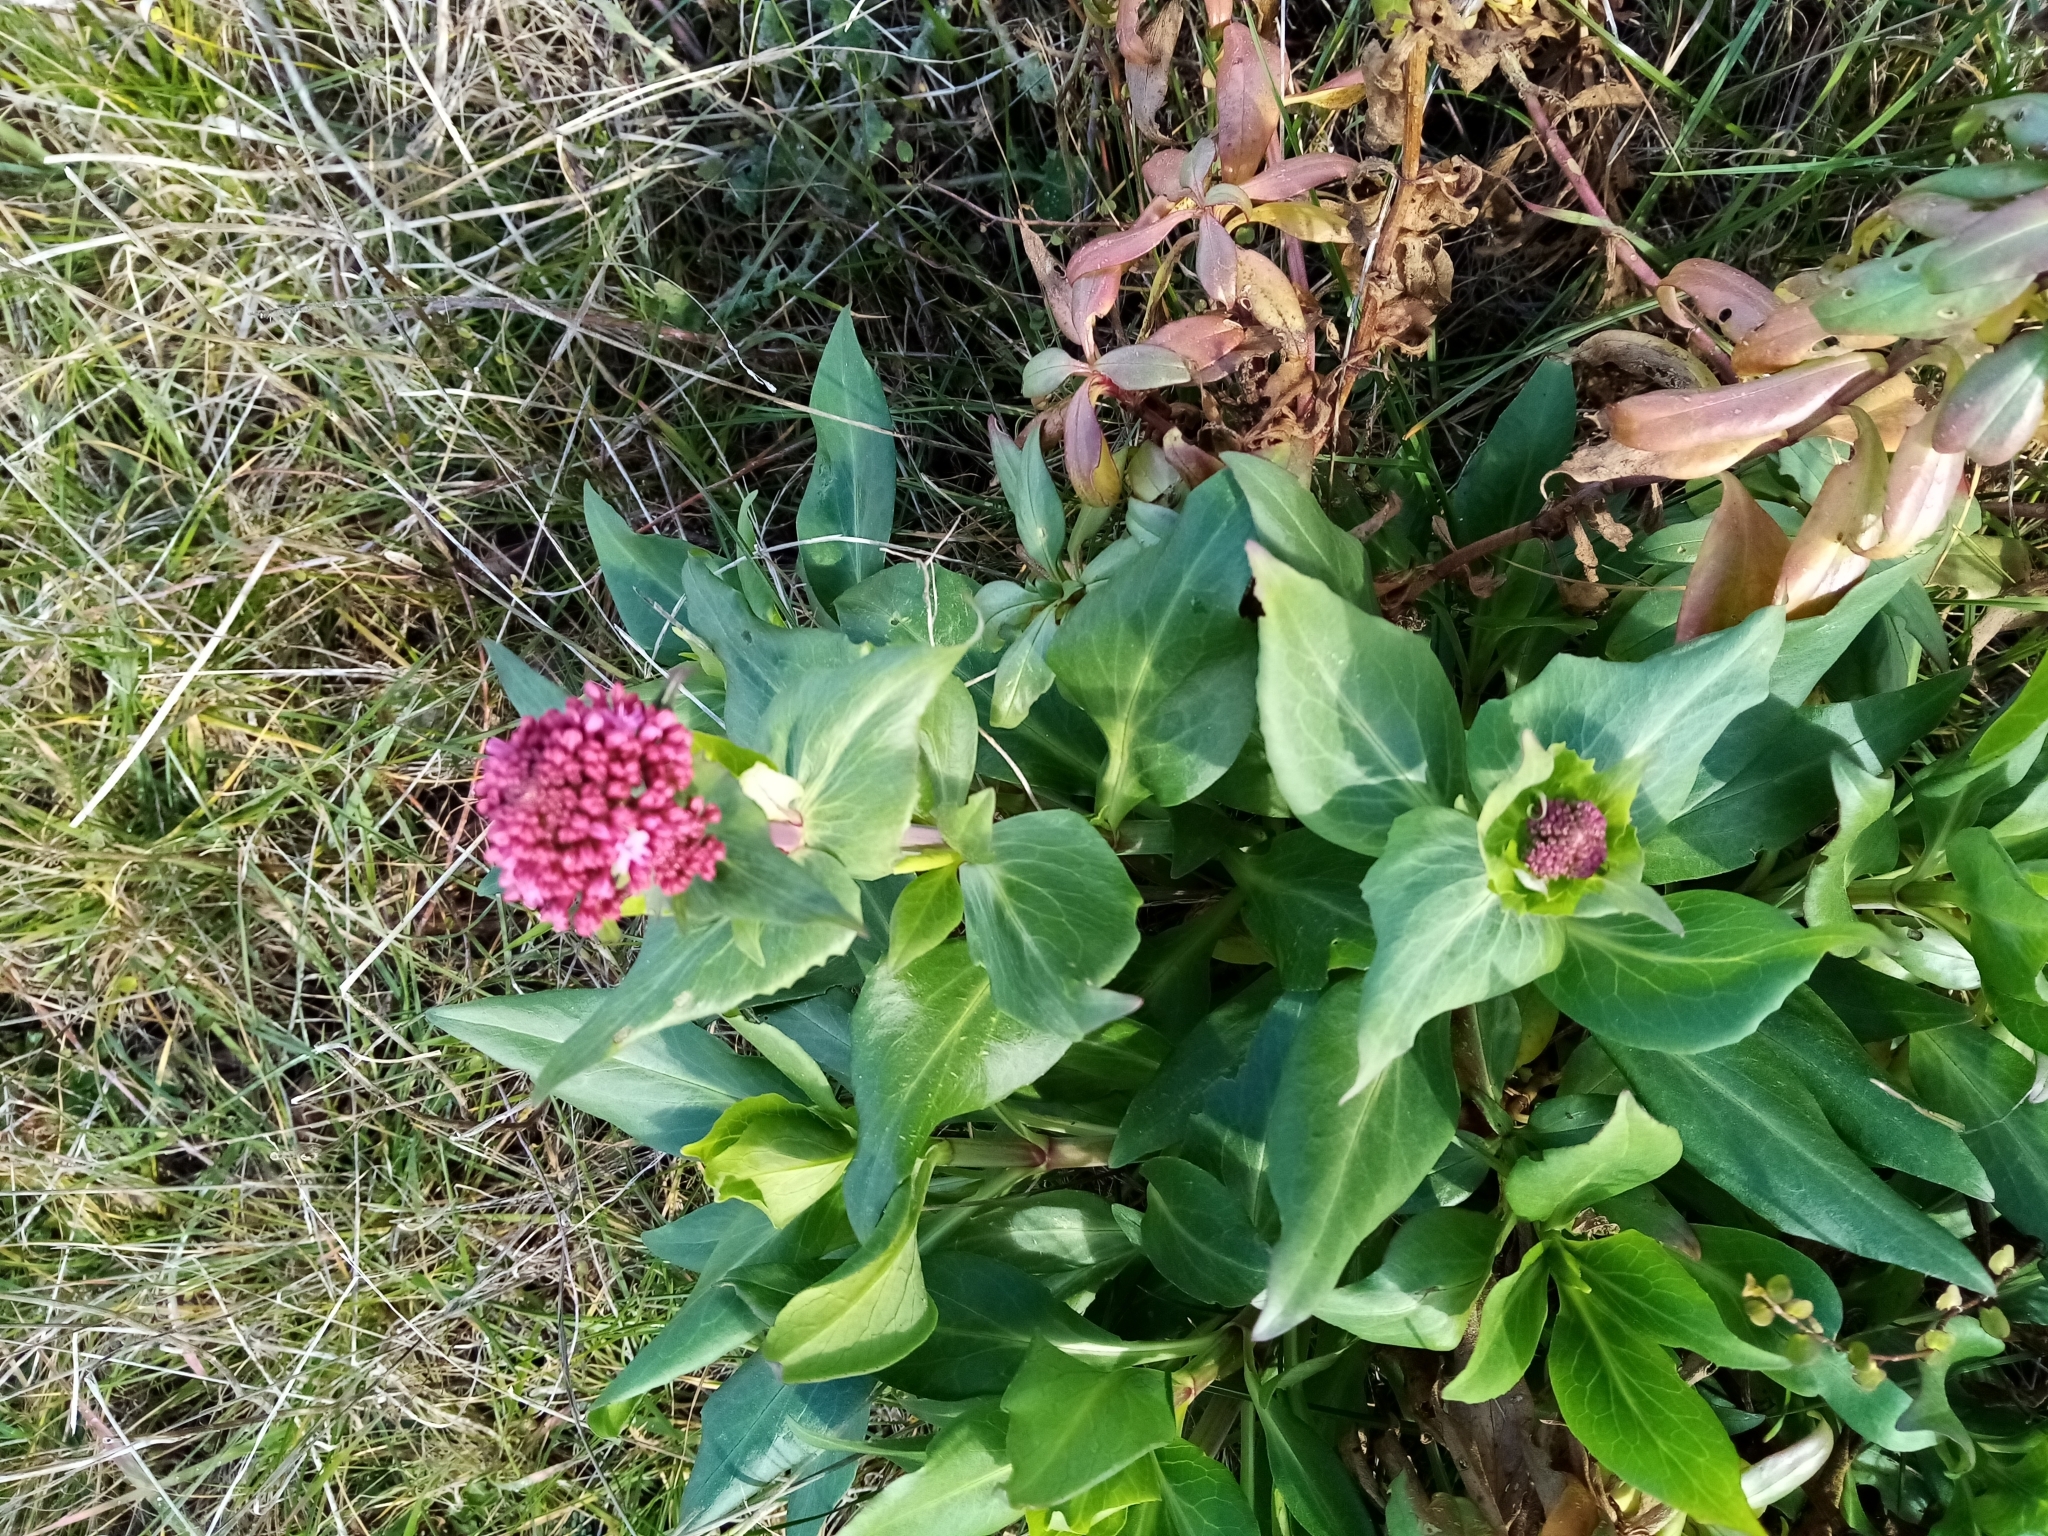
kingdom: Plantae
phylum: Tracheophyta
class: Magnoliopsida
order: Dipsacales
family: Caprifoliaceae
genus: Centranthus
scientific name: Centranthus ruber
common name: Red valerian
